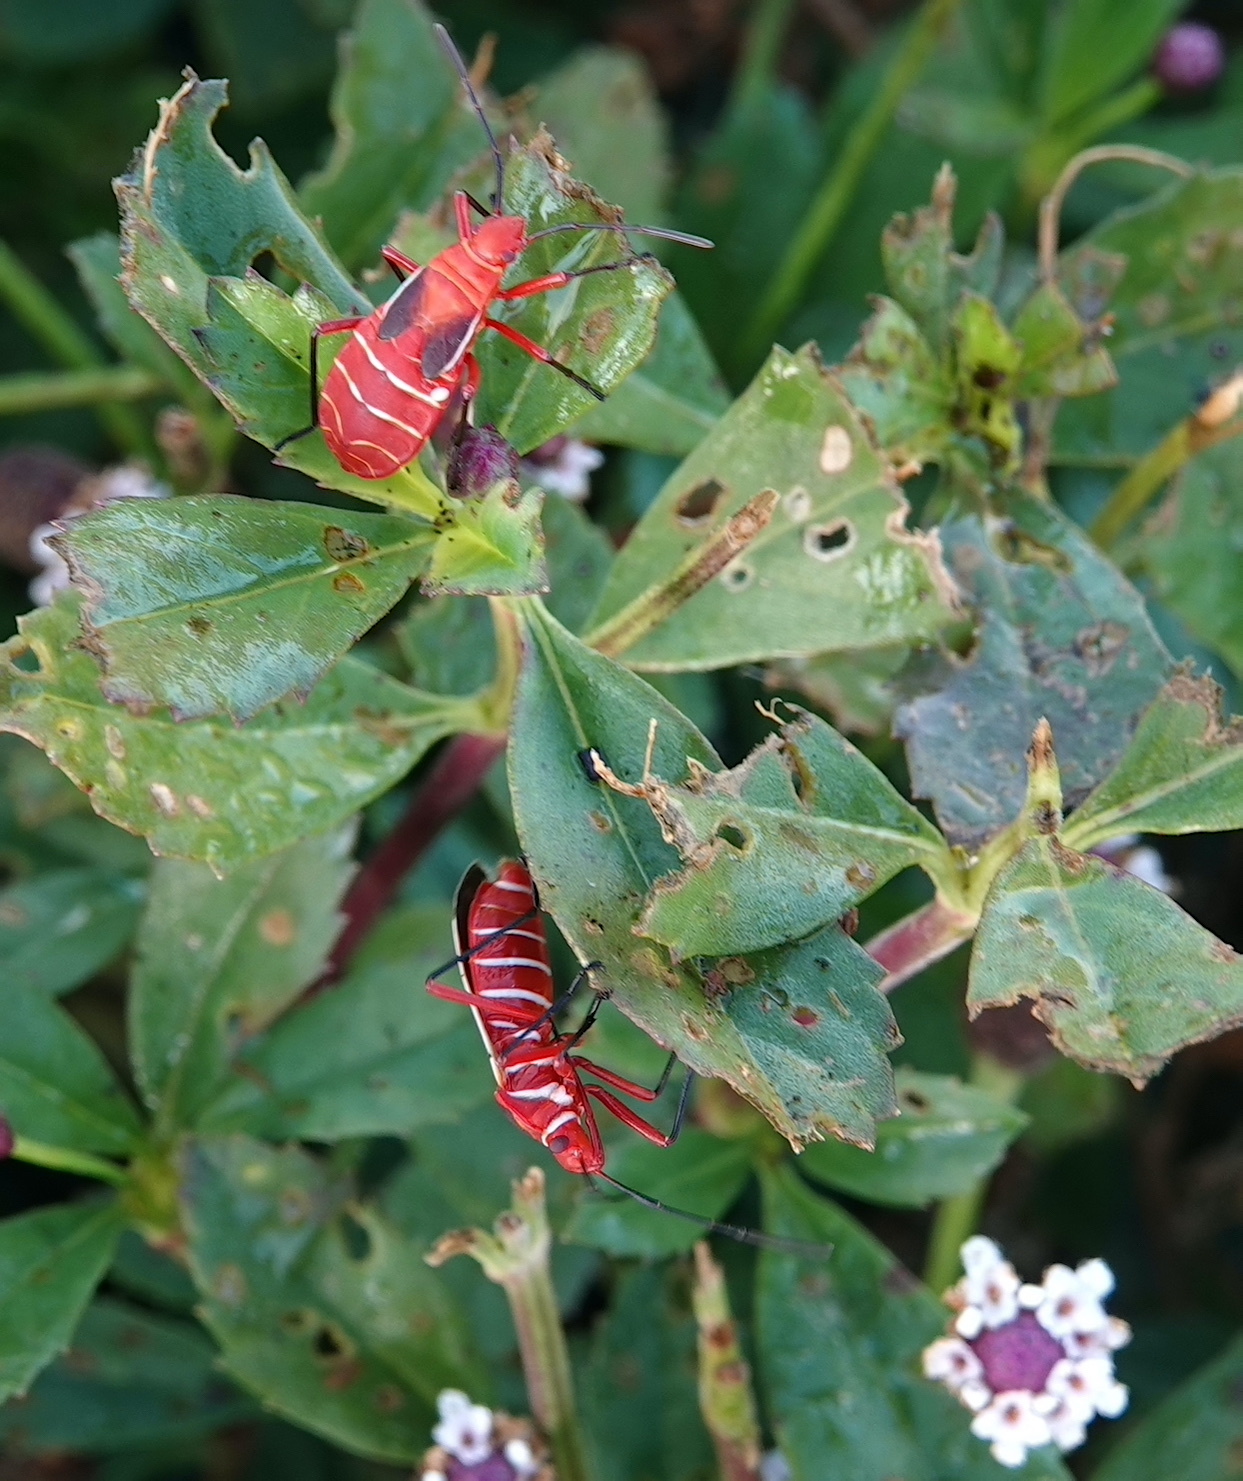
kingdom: Animalia
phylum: Arthropoda
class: Insecta
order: Hemiptera
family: Pyrrhocoridae
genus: Dysdercus
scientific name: Dysdercus suturellus
